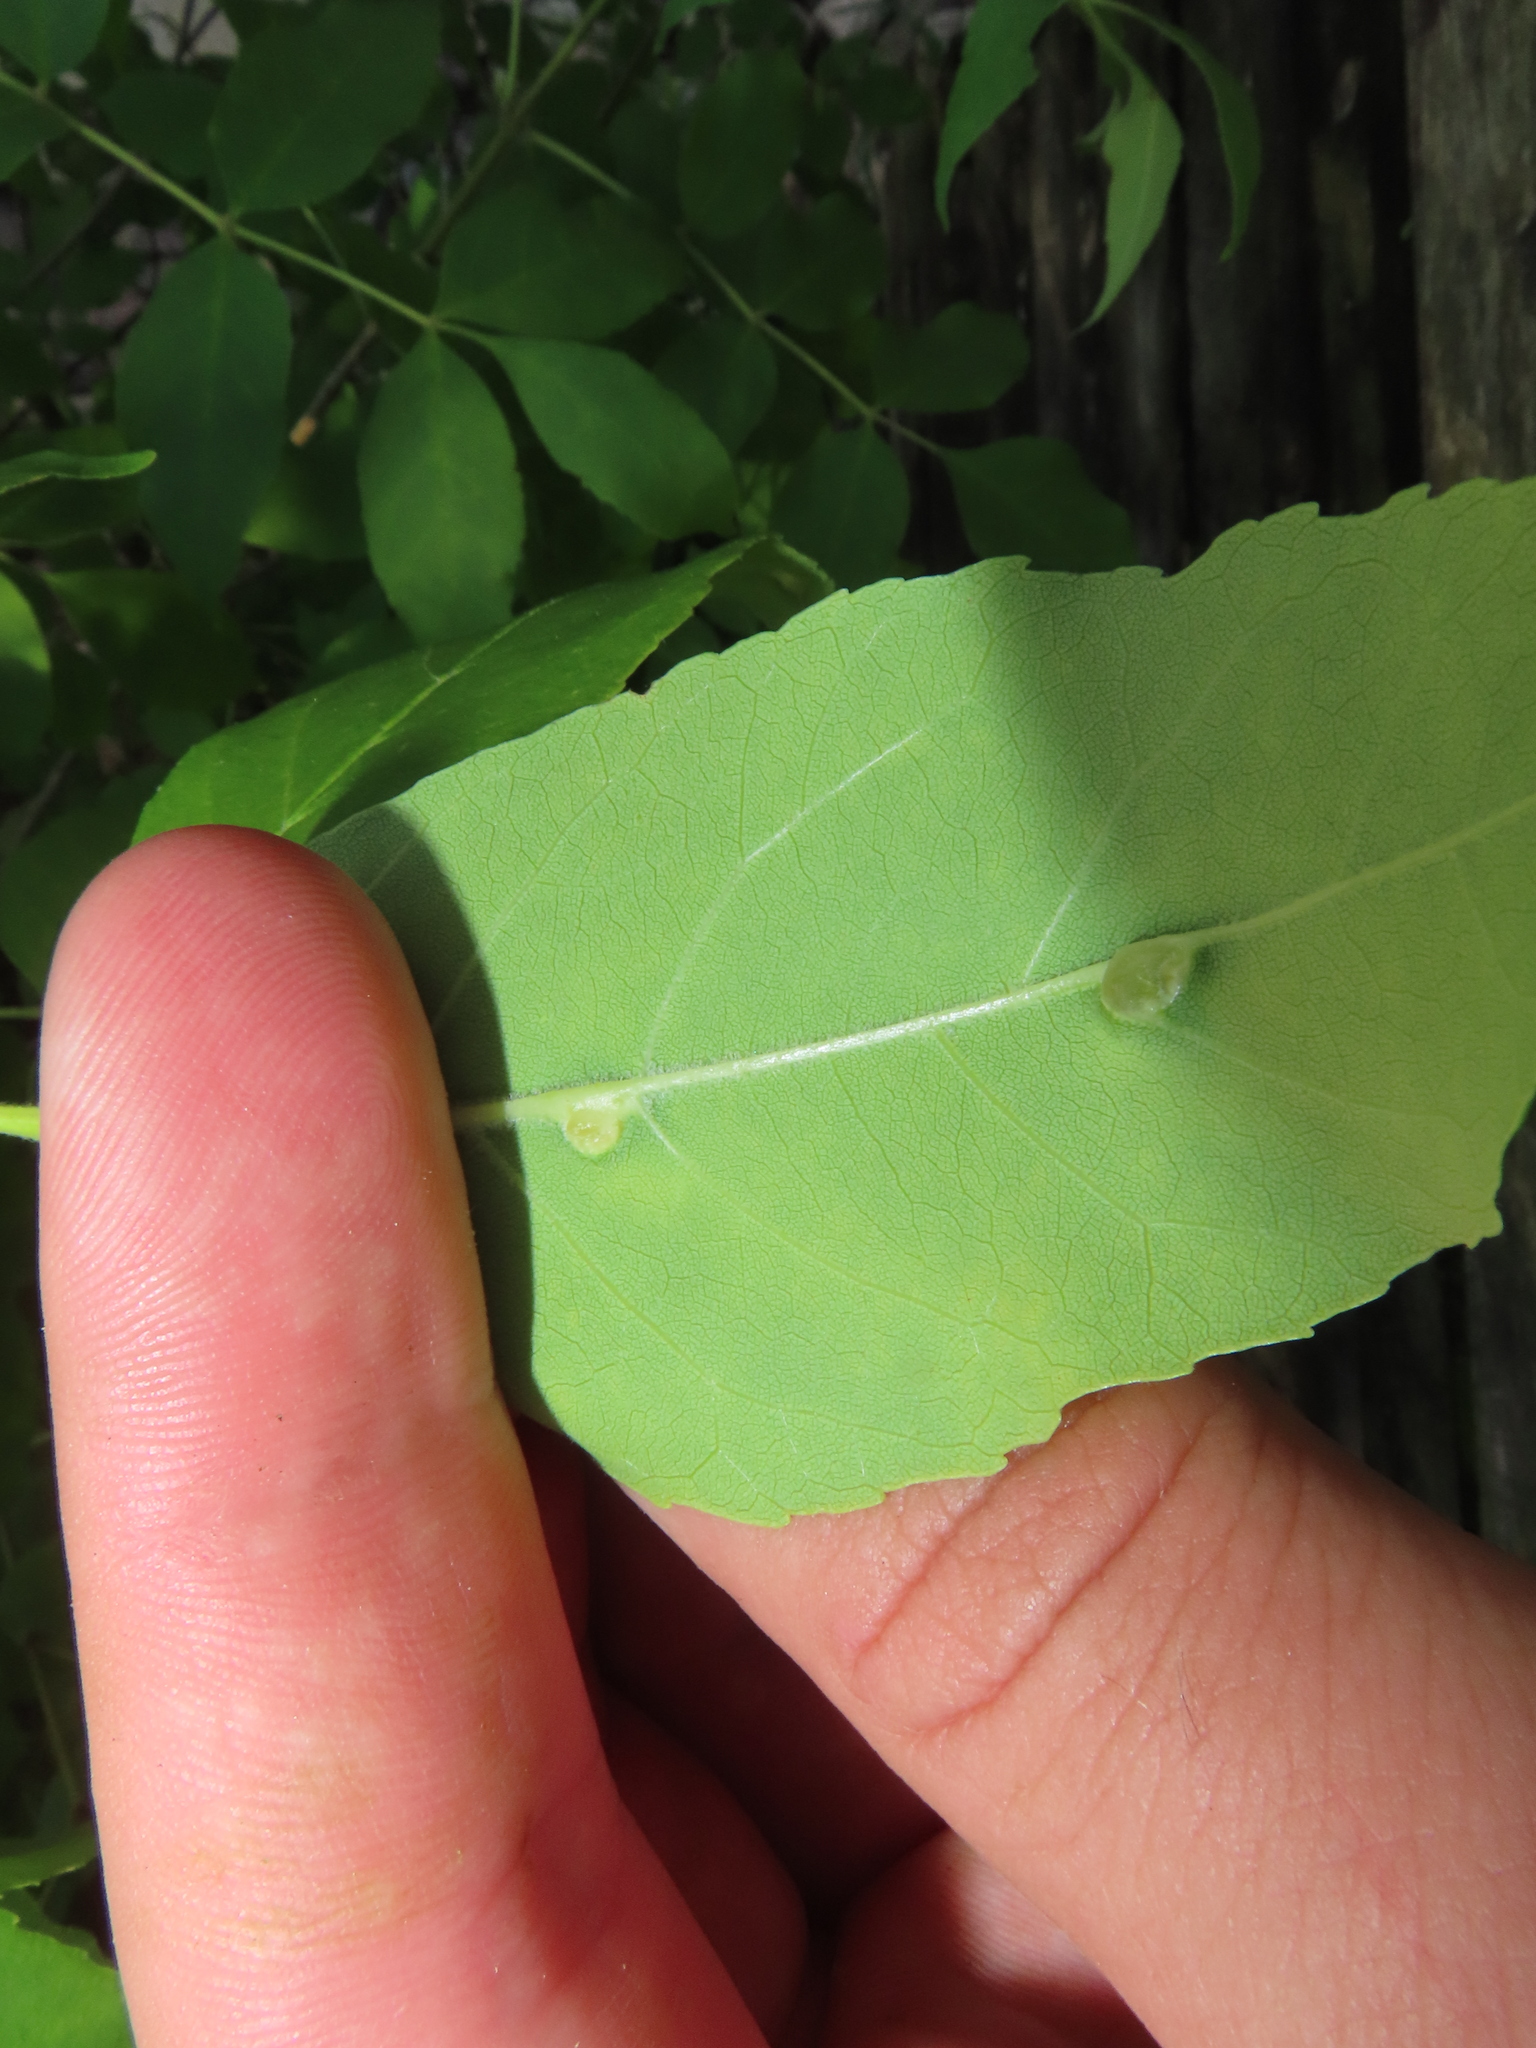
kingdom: Animalia
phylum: Arthropoda
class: Insecta
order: Diptera
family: Cecidomyiidae
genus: Dasineura
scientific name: Dasineura pellex
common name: Ash bullet gall midge
